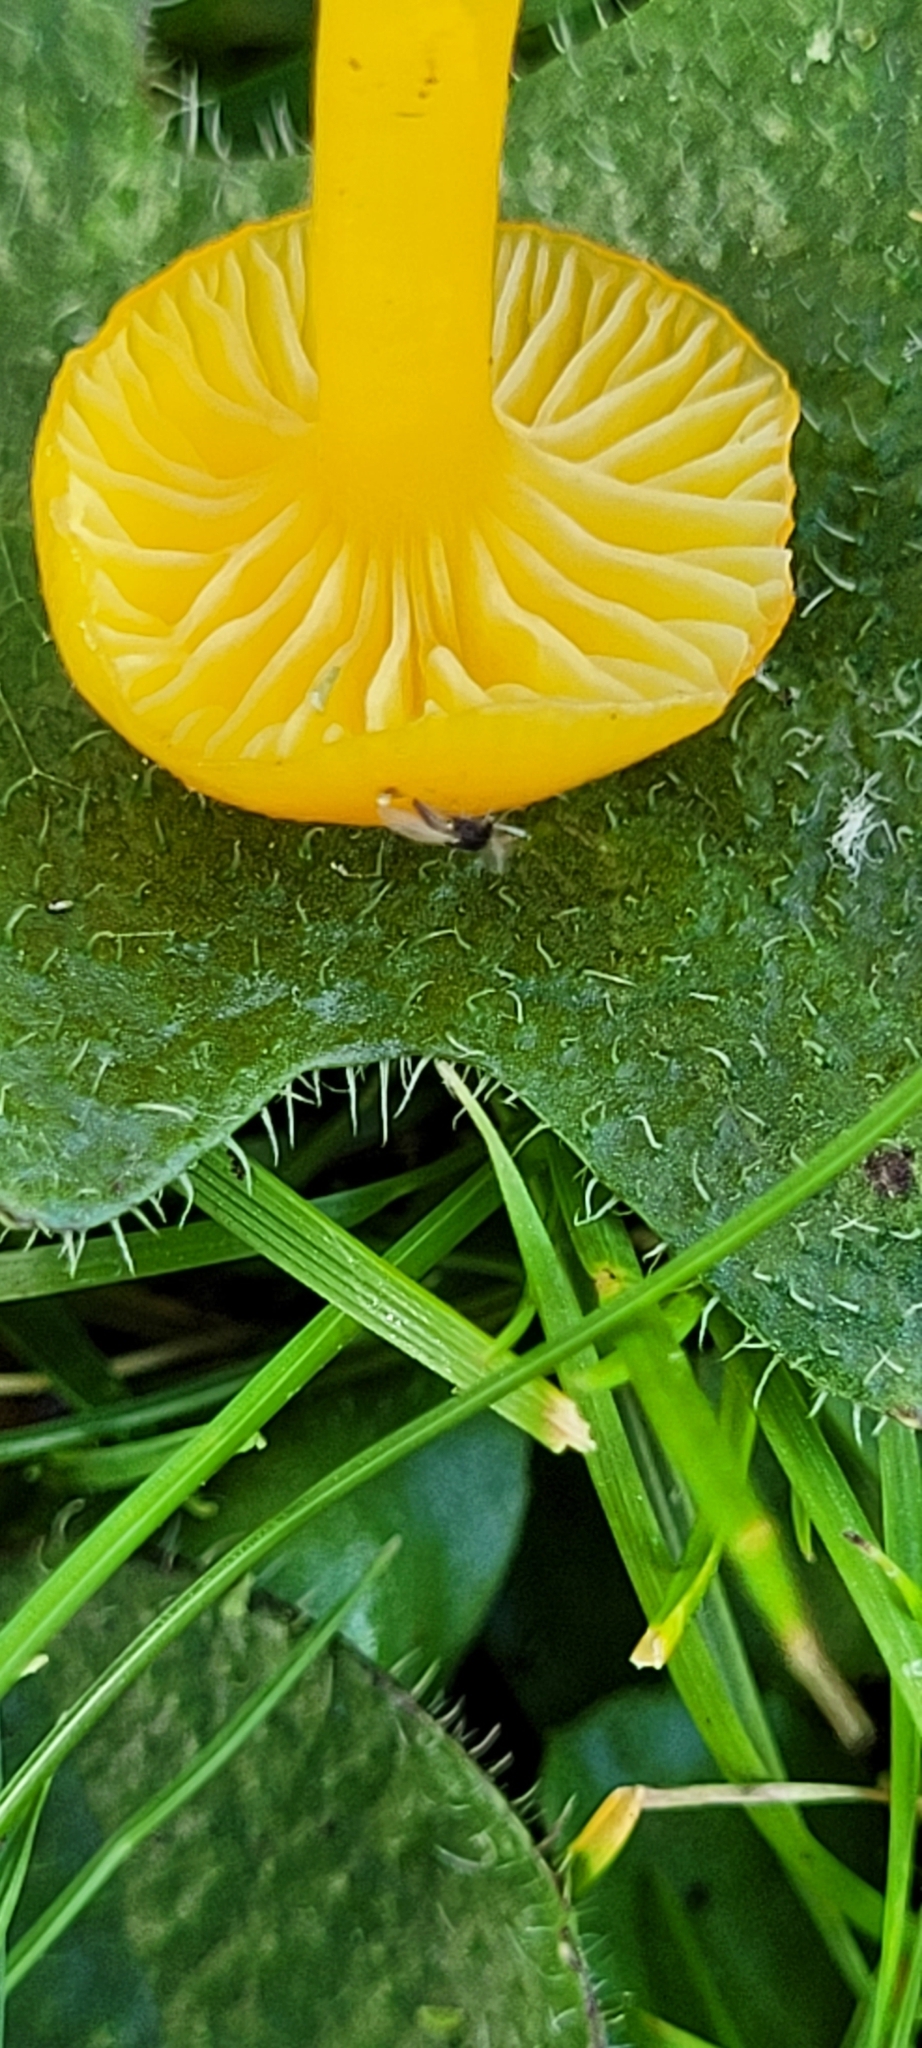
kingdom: Fungi
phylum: Basidiomycota
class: Agaricomycetes
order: Agaricales
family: Hygrophoraceae
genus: Hygrocybe
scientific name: Hygrocybe ceracea
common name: Butter waxcap
